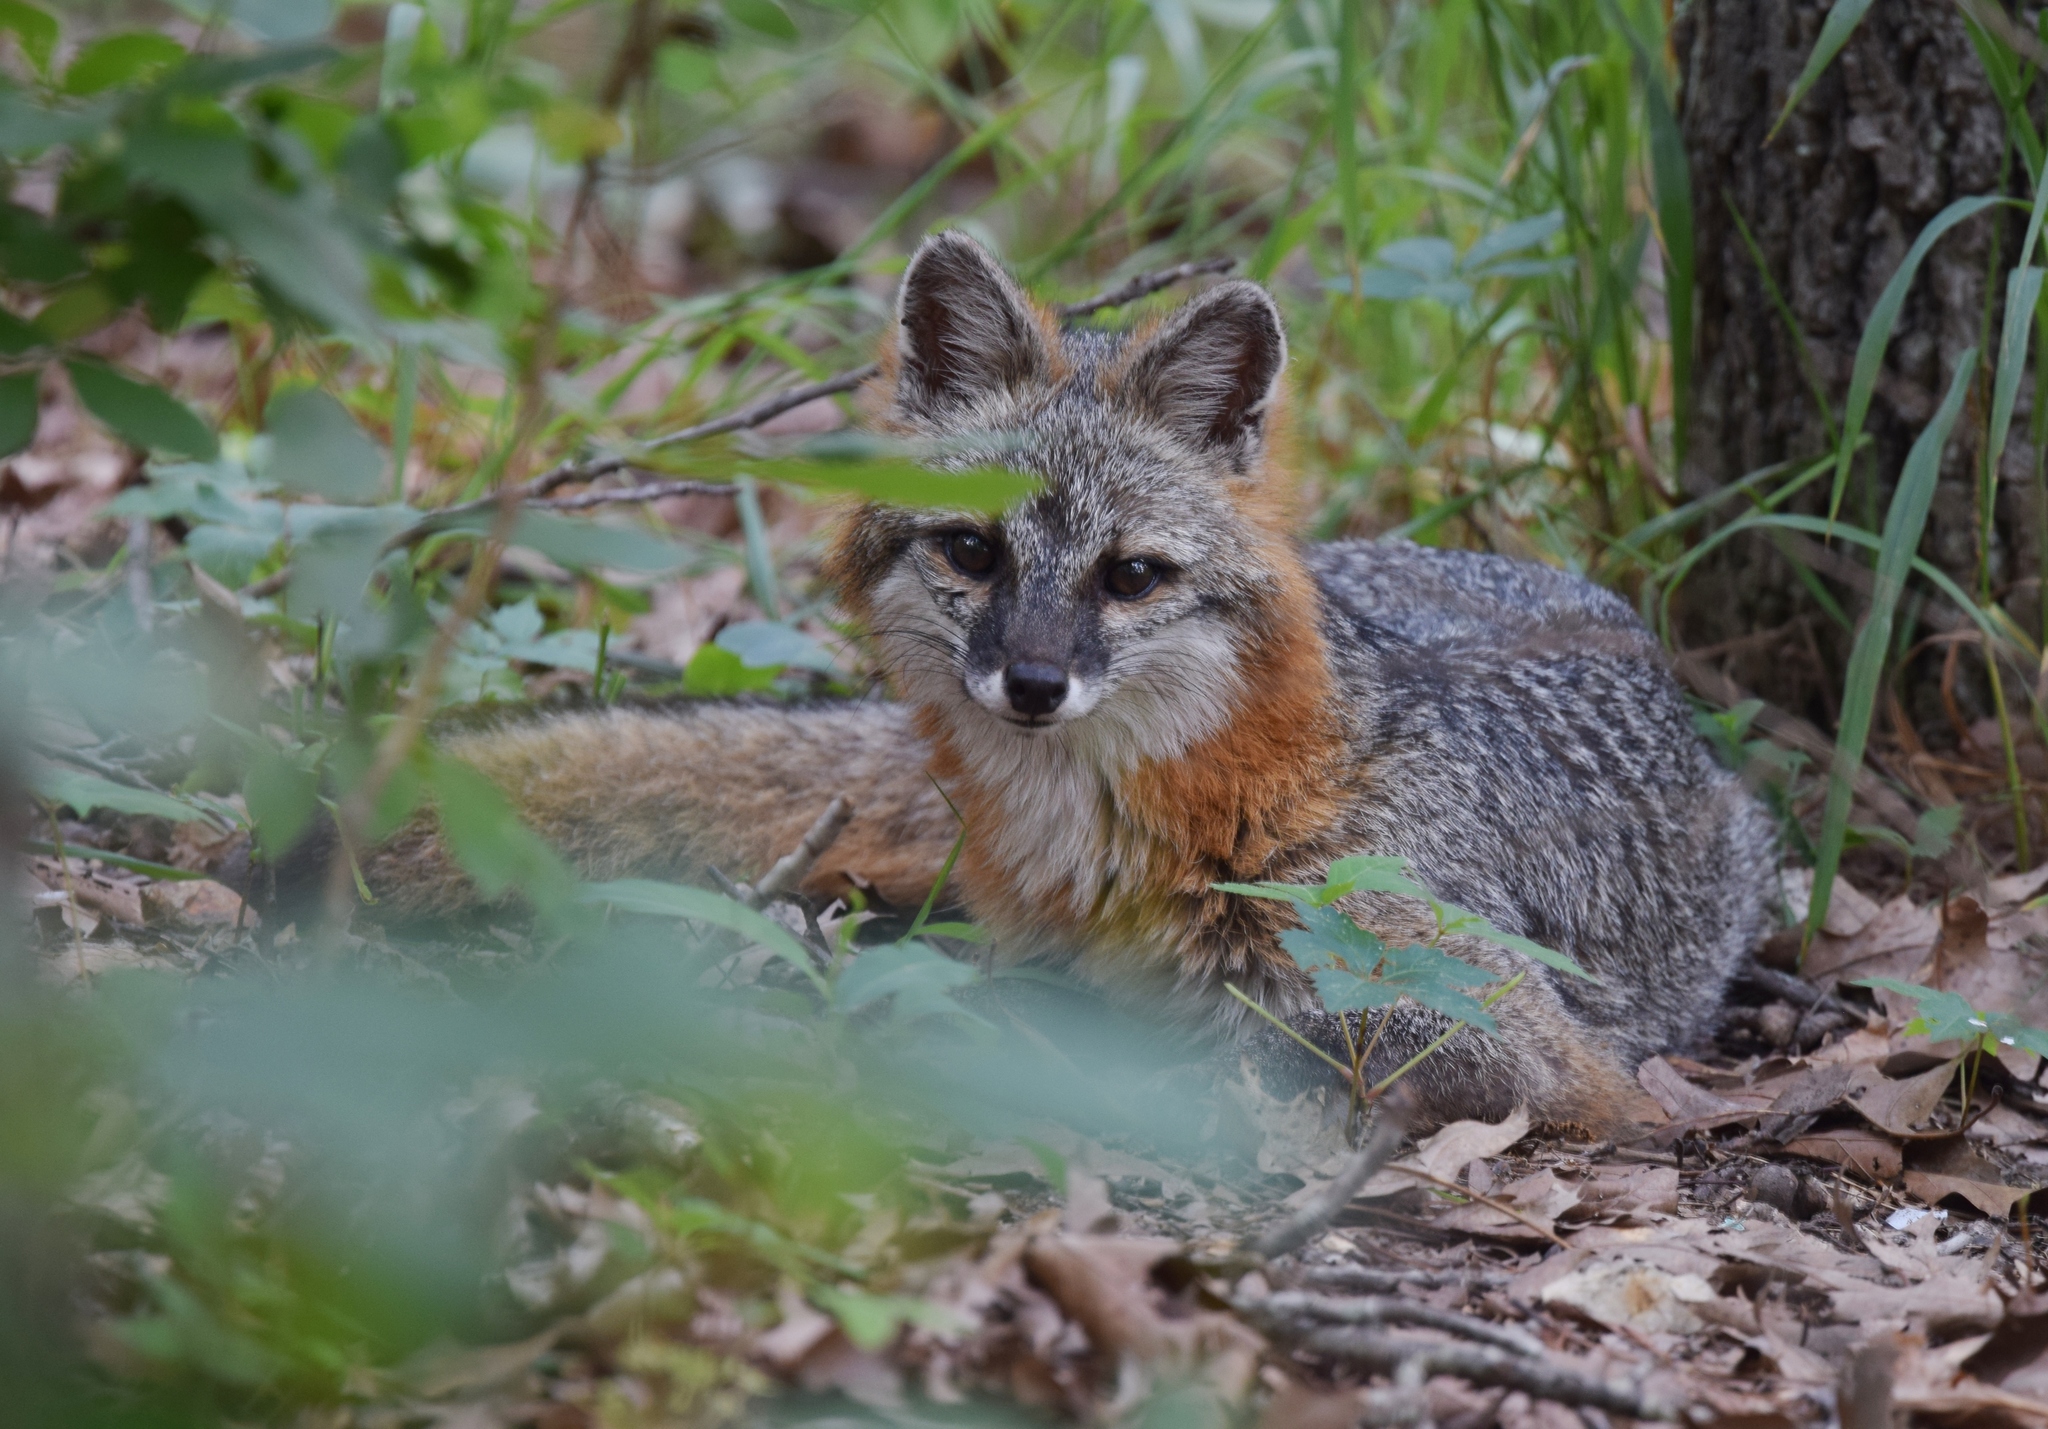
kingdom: Animalia
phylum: Chordata
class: Mammalia
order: Carnivora
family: Canidae
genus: Urocyon
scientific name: Urocyon cinereoargenteus
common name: Gray fox
